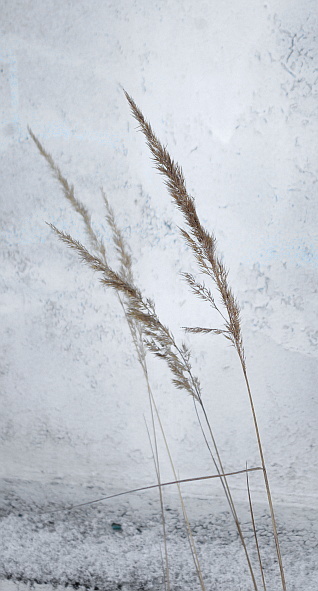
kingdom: Plantae
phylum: Tracheophyta
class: Liliopsida
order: Poales
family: Poaceae
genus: Calamagrostis
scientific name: Calamagrostis epigejos
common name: Wood small-reed
